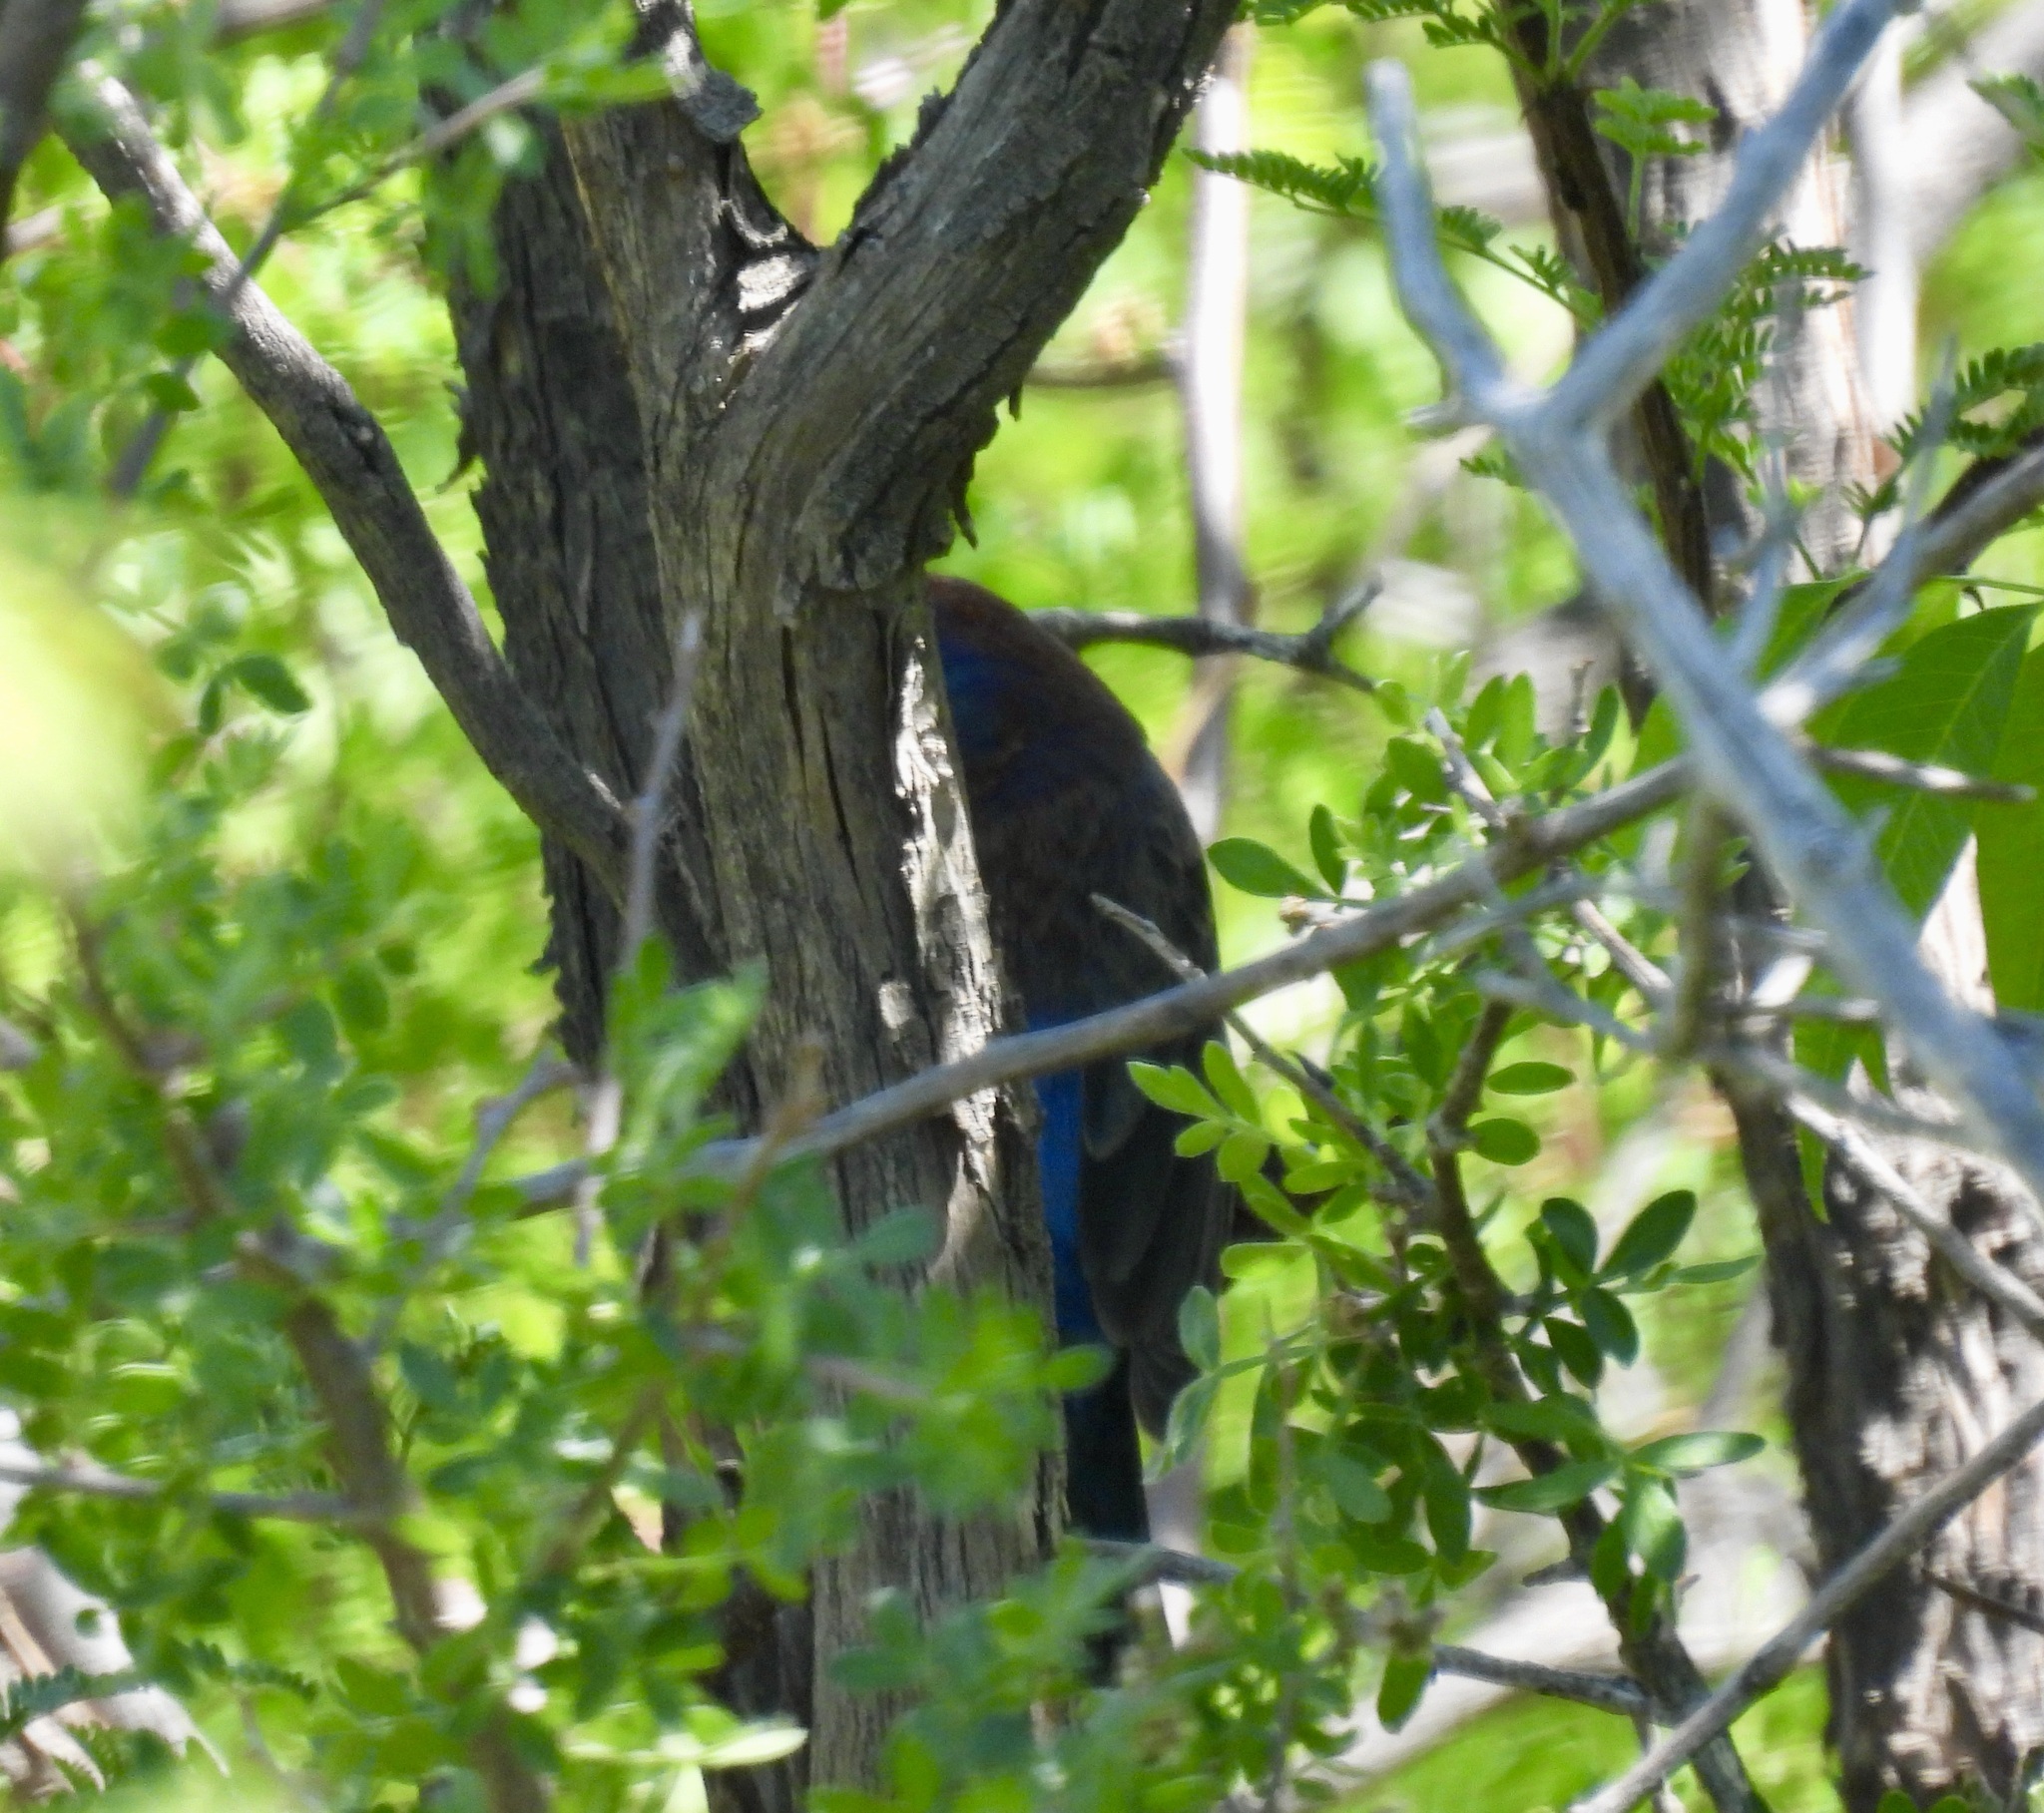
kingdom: Animalia
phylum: Chordata
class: Aves
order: Passeriformes
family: Cardinalidae
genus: Passerina
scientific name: Passerina versicolor
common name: Varied bunting
